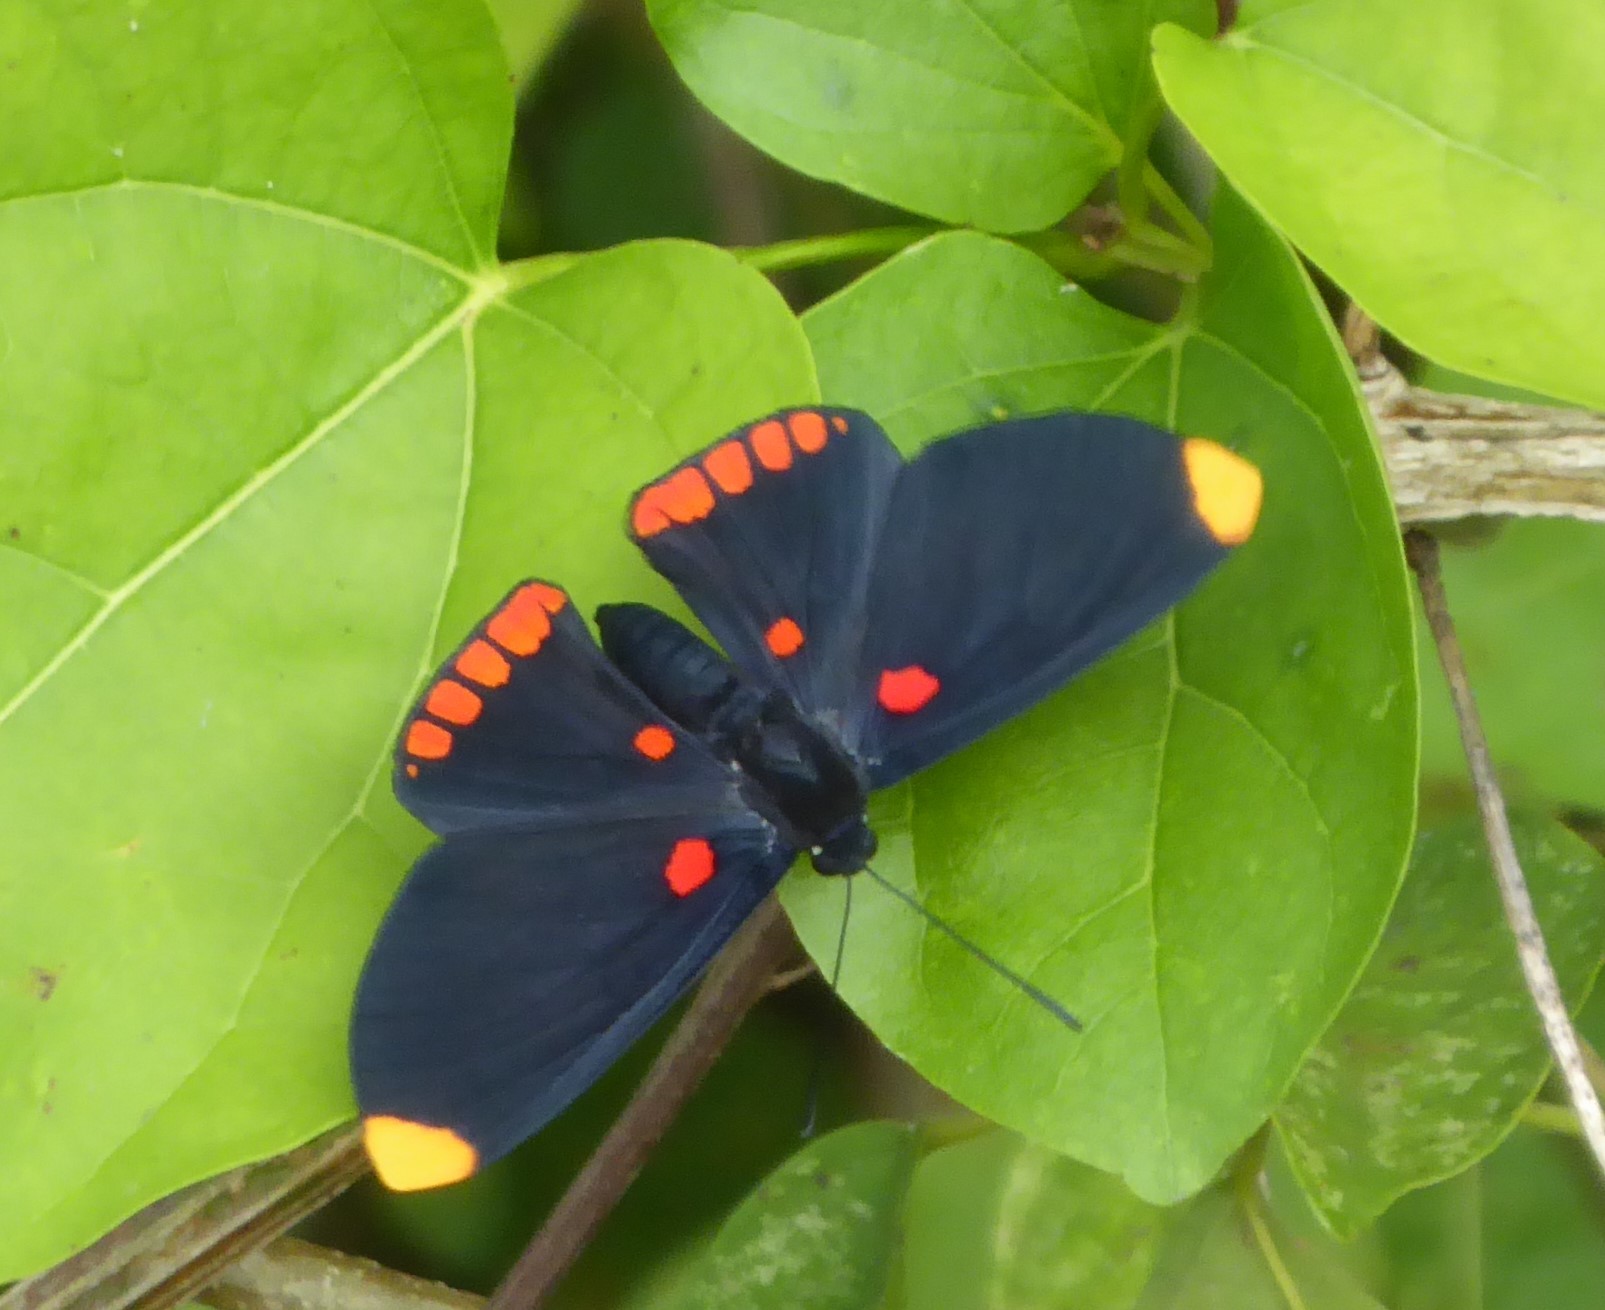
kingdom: Animalia
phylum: Arthropoda
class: Insecta
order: Lepidoptera
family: Lycaenidae
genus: Melanis
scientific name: Melanis pixe
